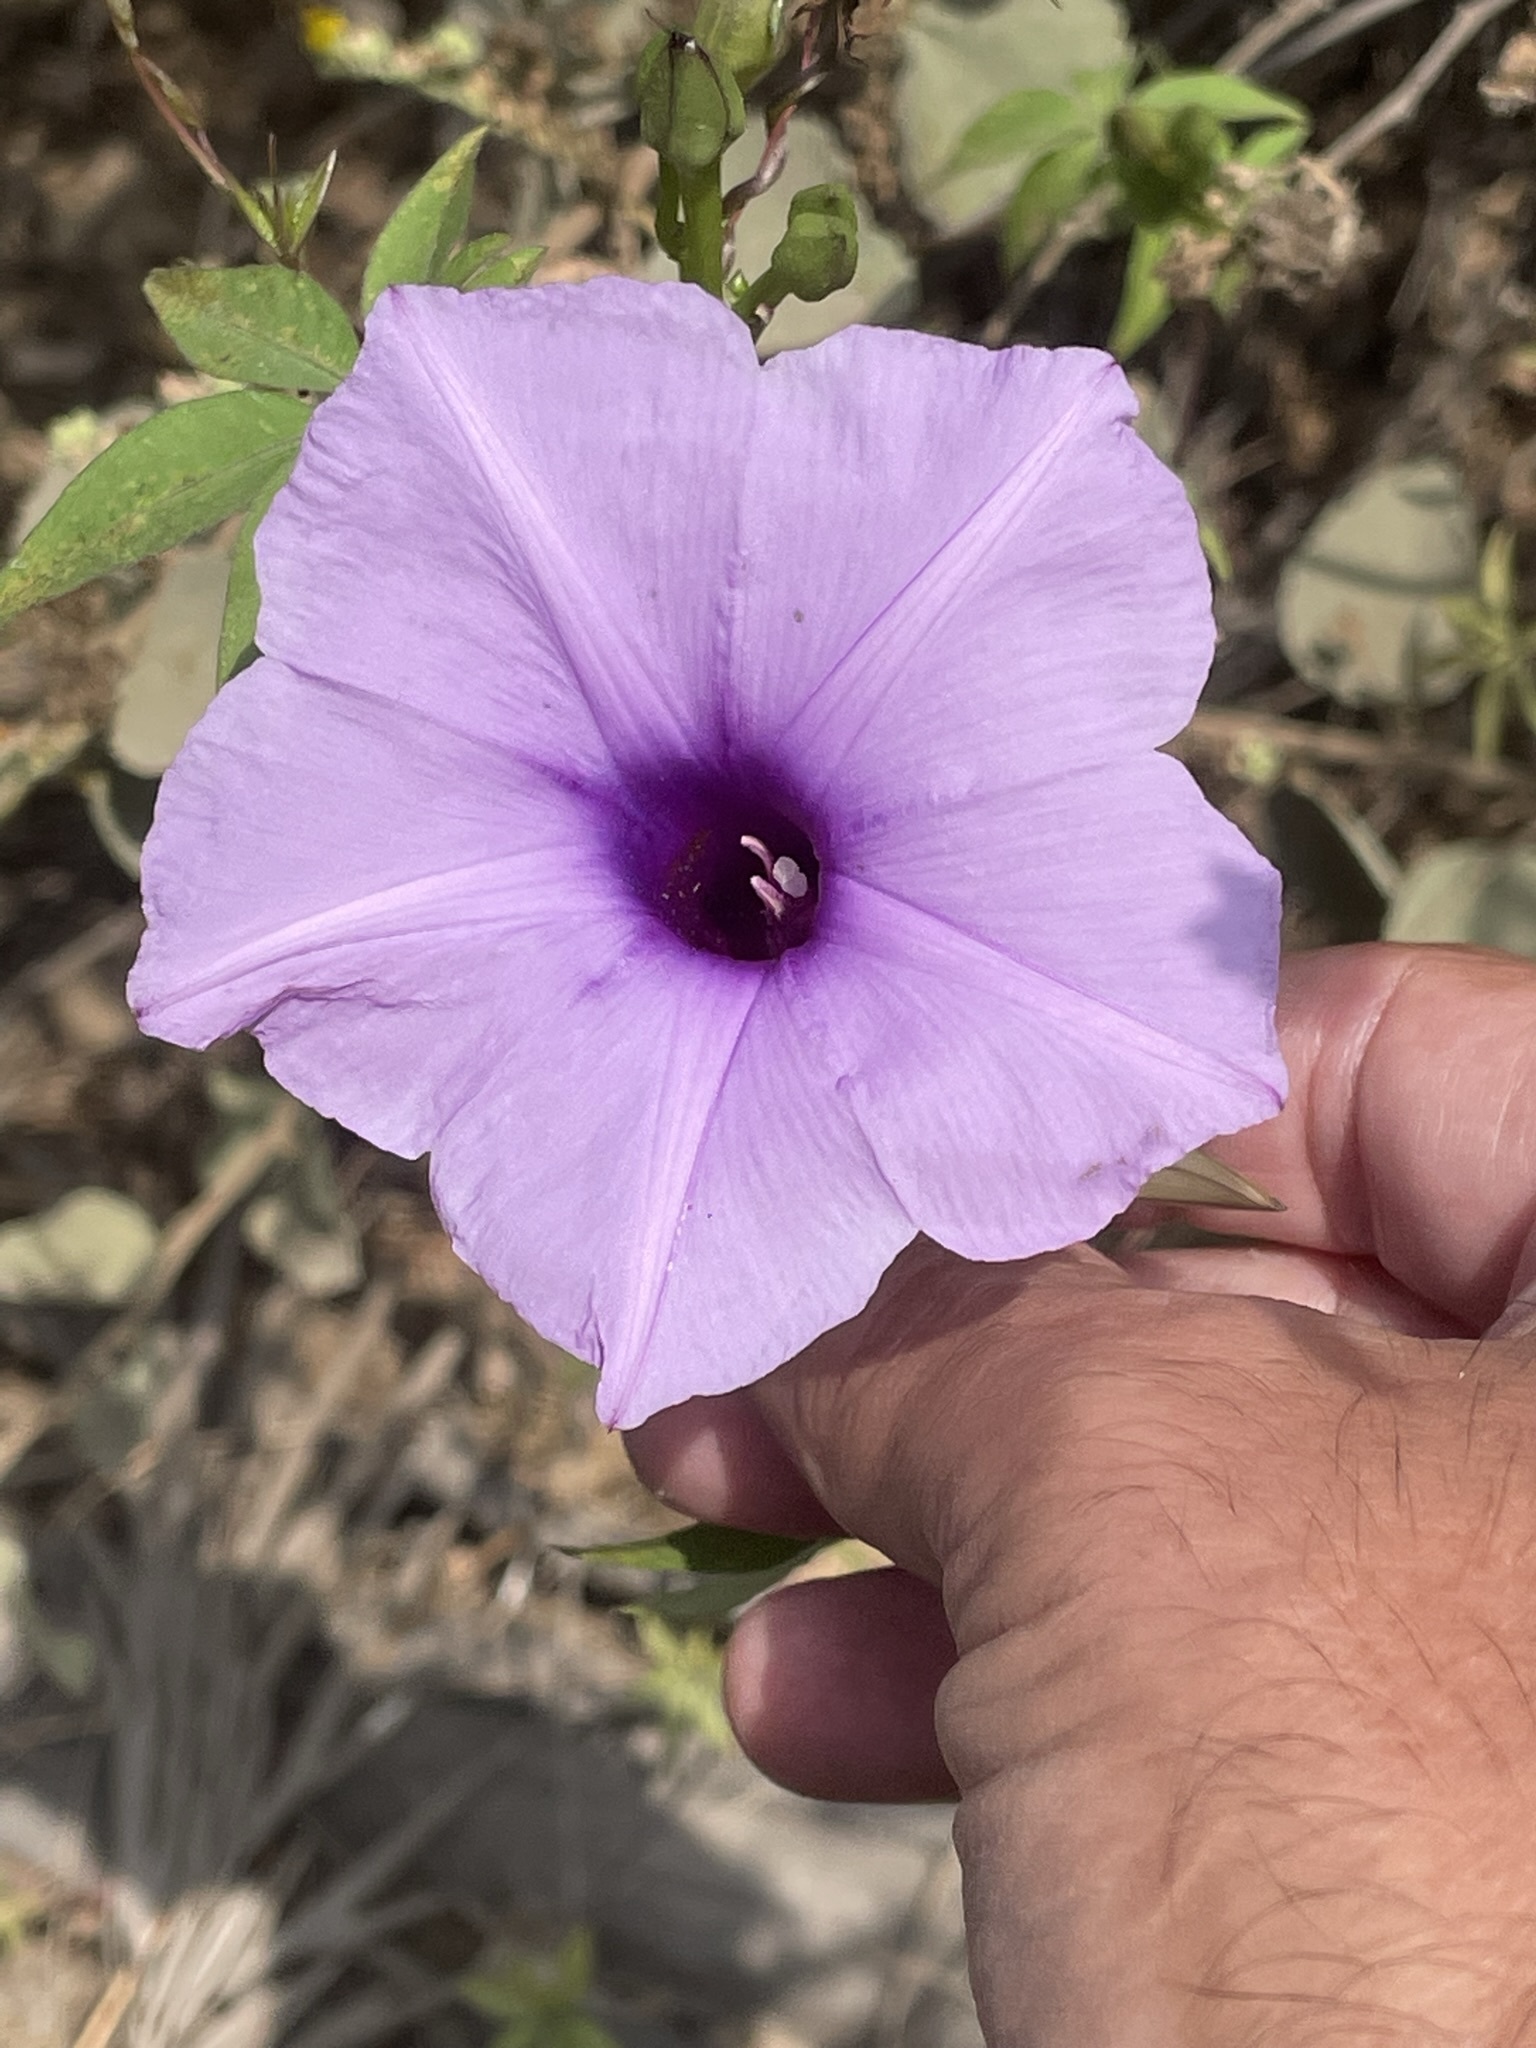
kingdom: Plantae
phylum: Tracheophyta
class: Magnoliopsida
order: Solanales
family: Convolvulaceae
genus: Ipomoea
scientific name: Ipomoea cairica
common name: Mile a minute vine
